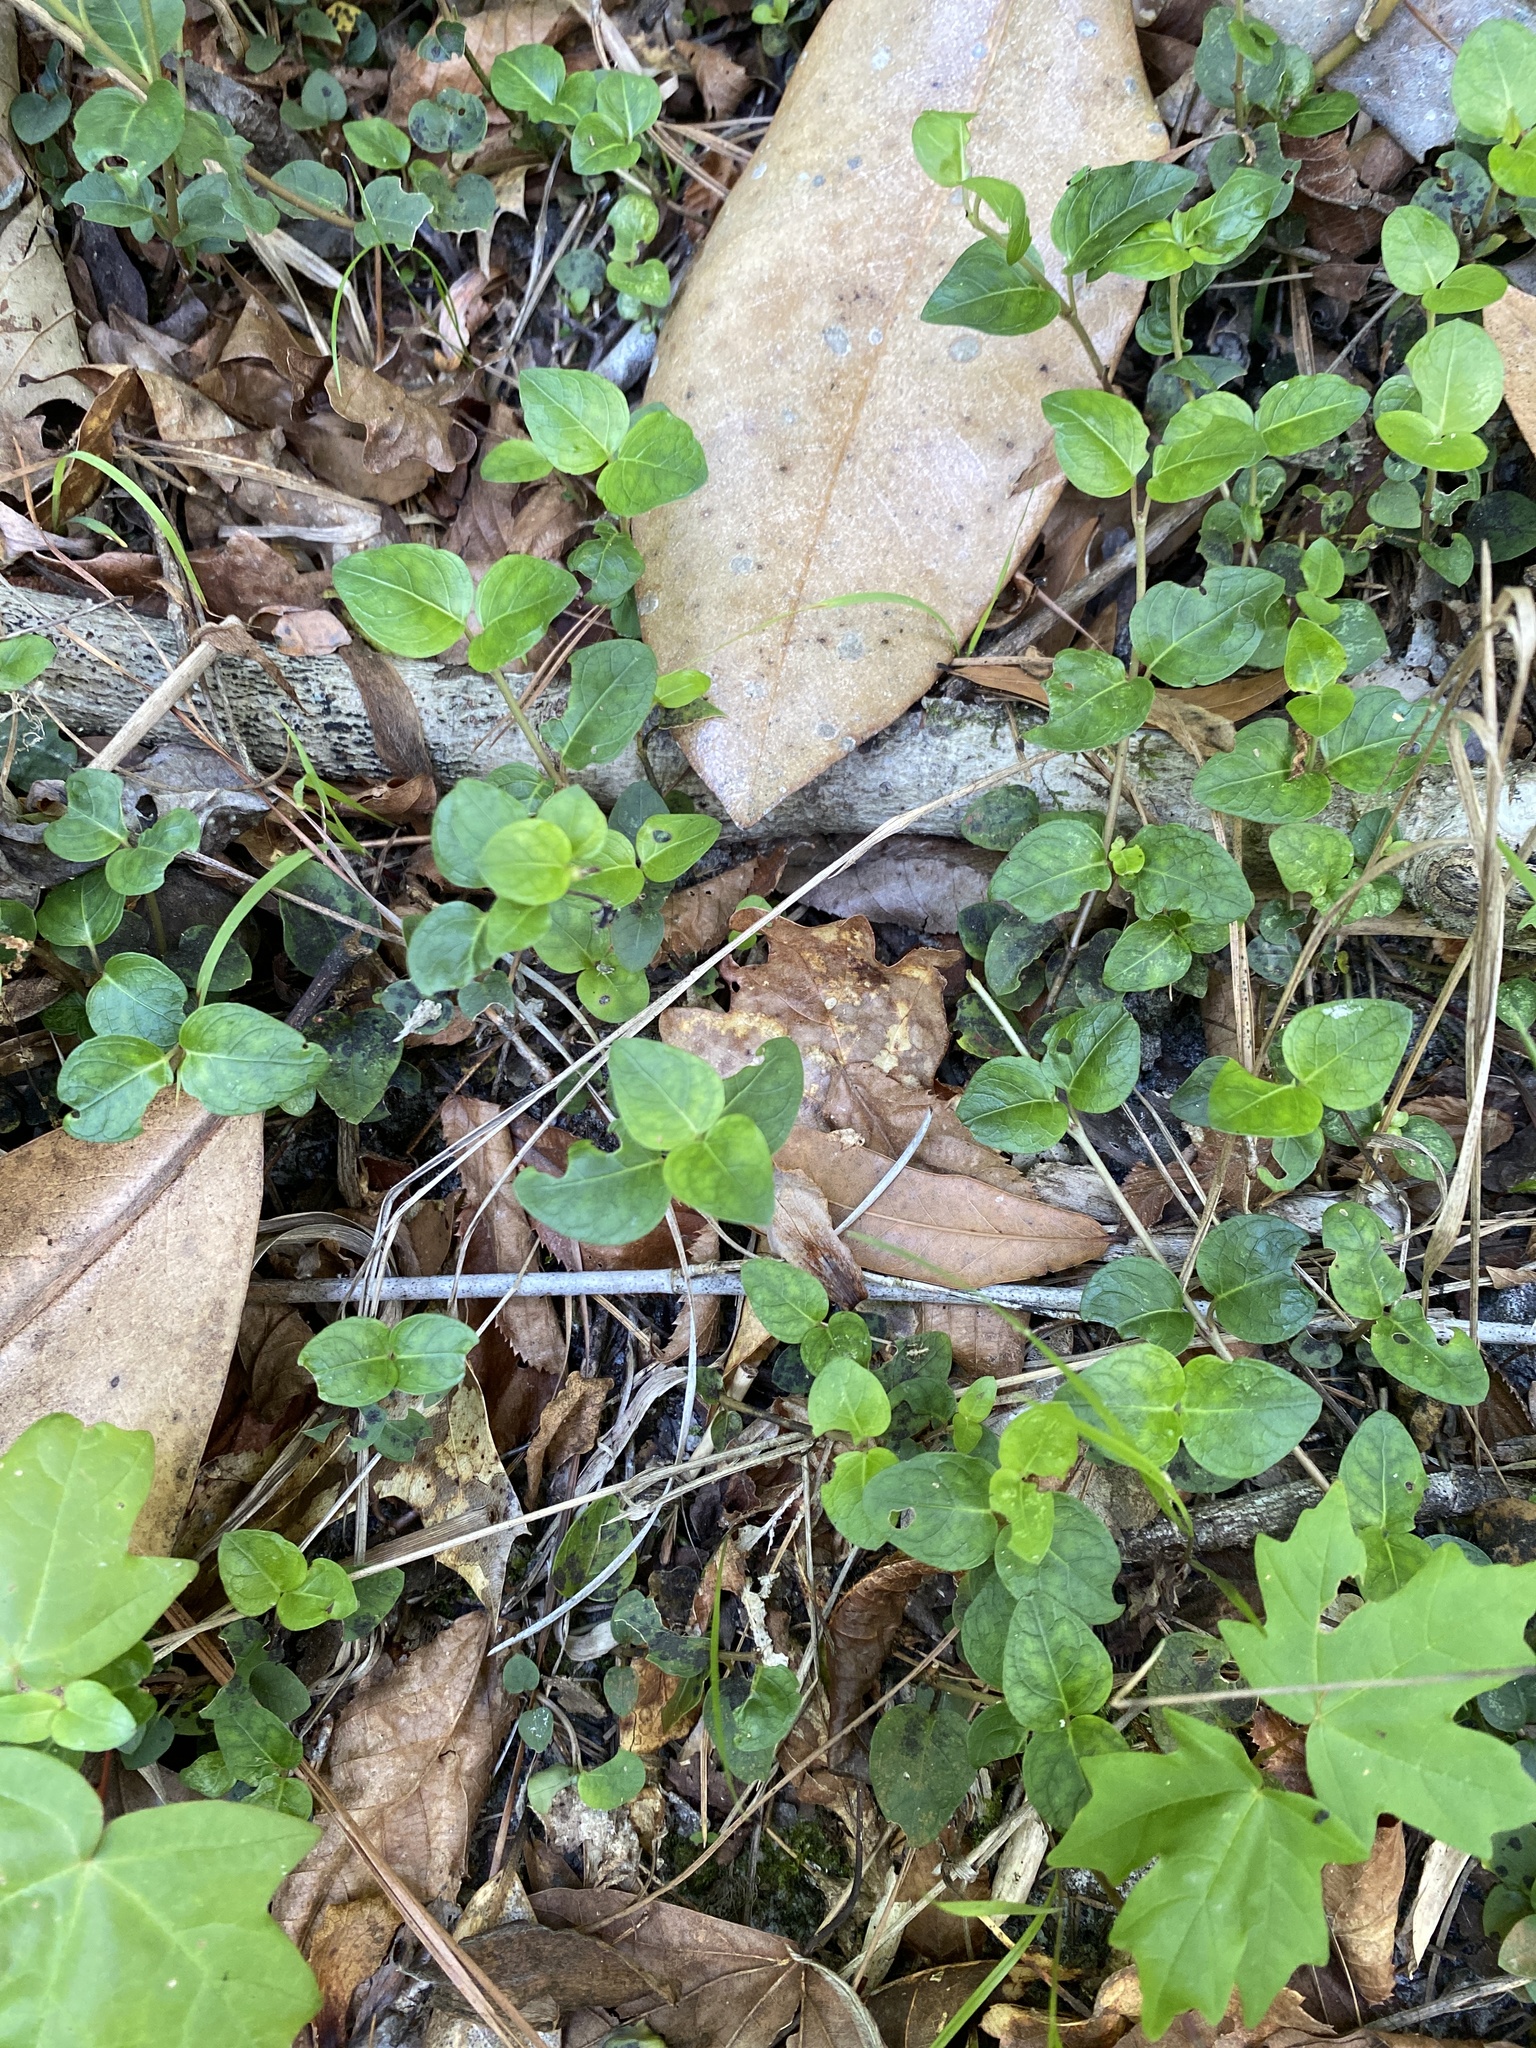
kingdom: Plantae
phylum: Tracheophyta
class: Magnoliopsida
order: Gentianales
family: Rubiaceae
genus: Mitchella
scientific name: Mitchella repens
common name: Partridge-berry
